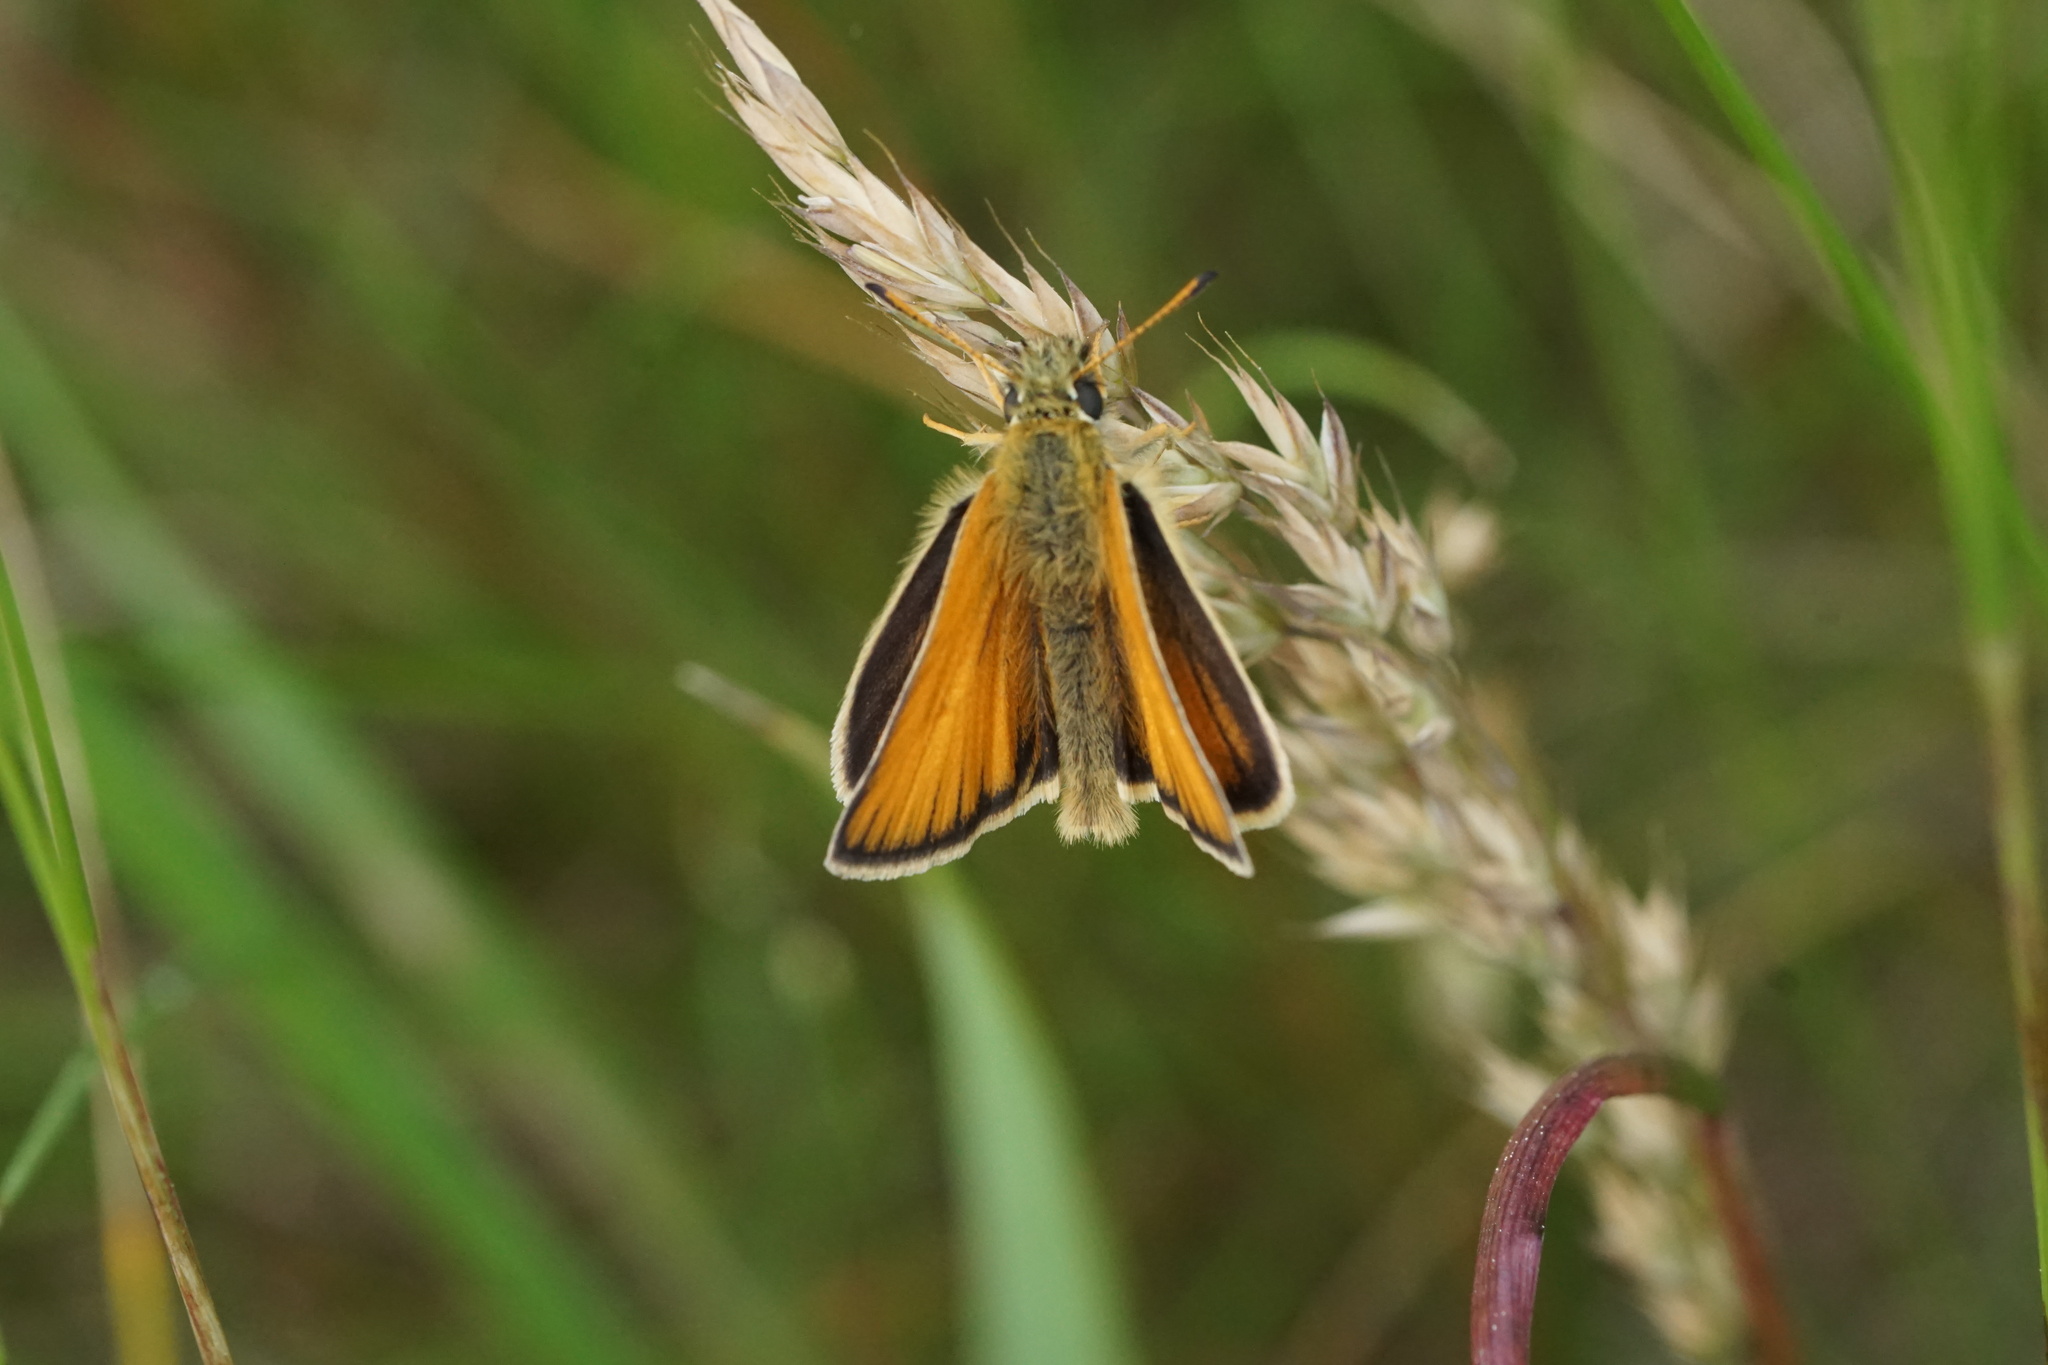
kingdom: Animalia
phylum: Arthropoda
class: Insecta
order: Lepidoptera
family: Hesperiidae
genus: Thymelicus
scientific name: Thymelicus lineola
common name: Essex skipper
